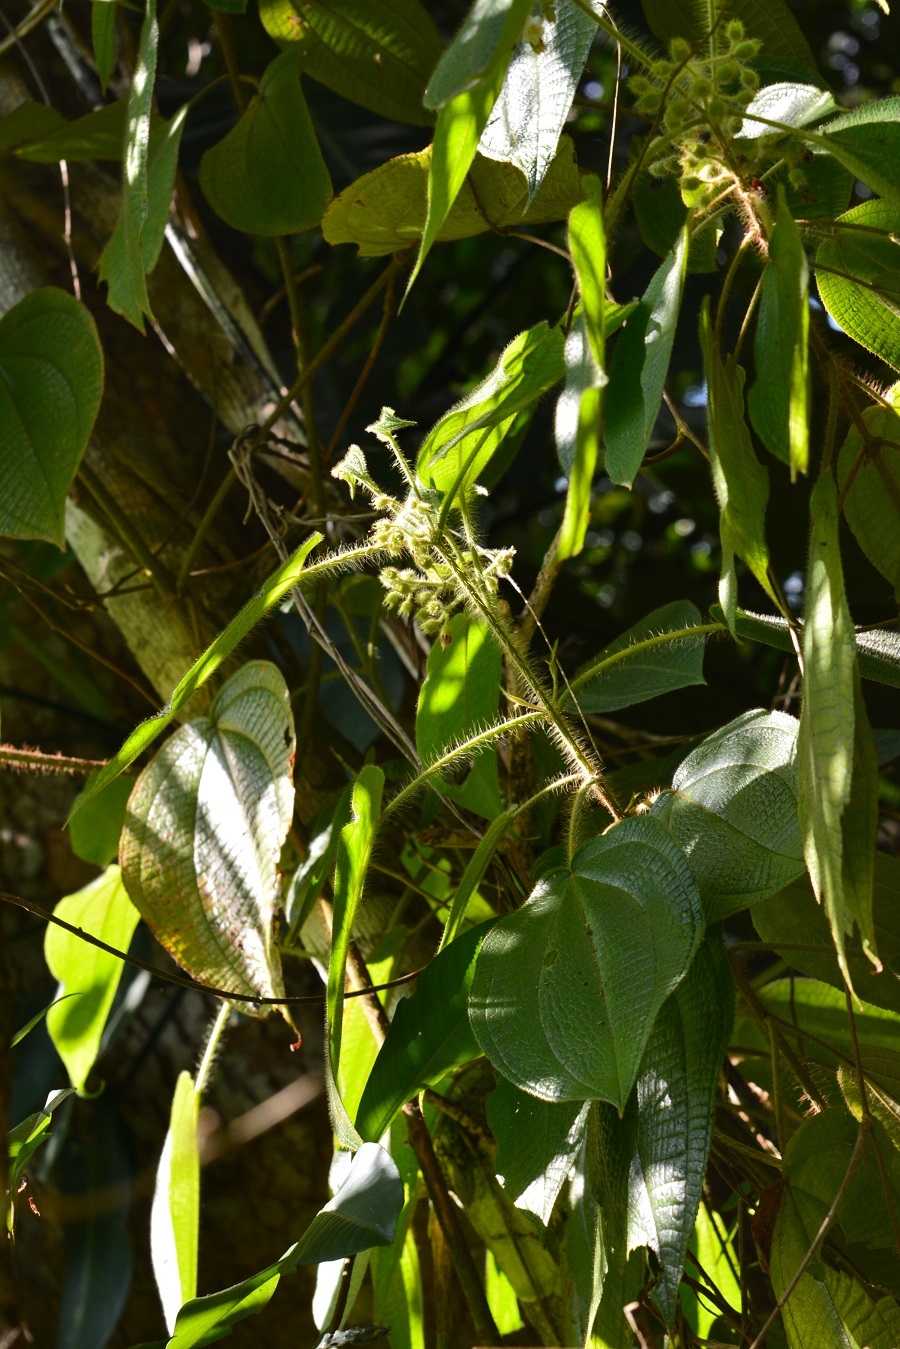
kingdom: Plantae
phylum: Tracheophyta
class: Magnoliopsida
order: Myrtales
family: Melastomataceae
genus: Miconia
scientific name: Miconia octona
